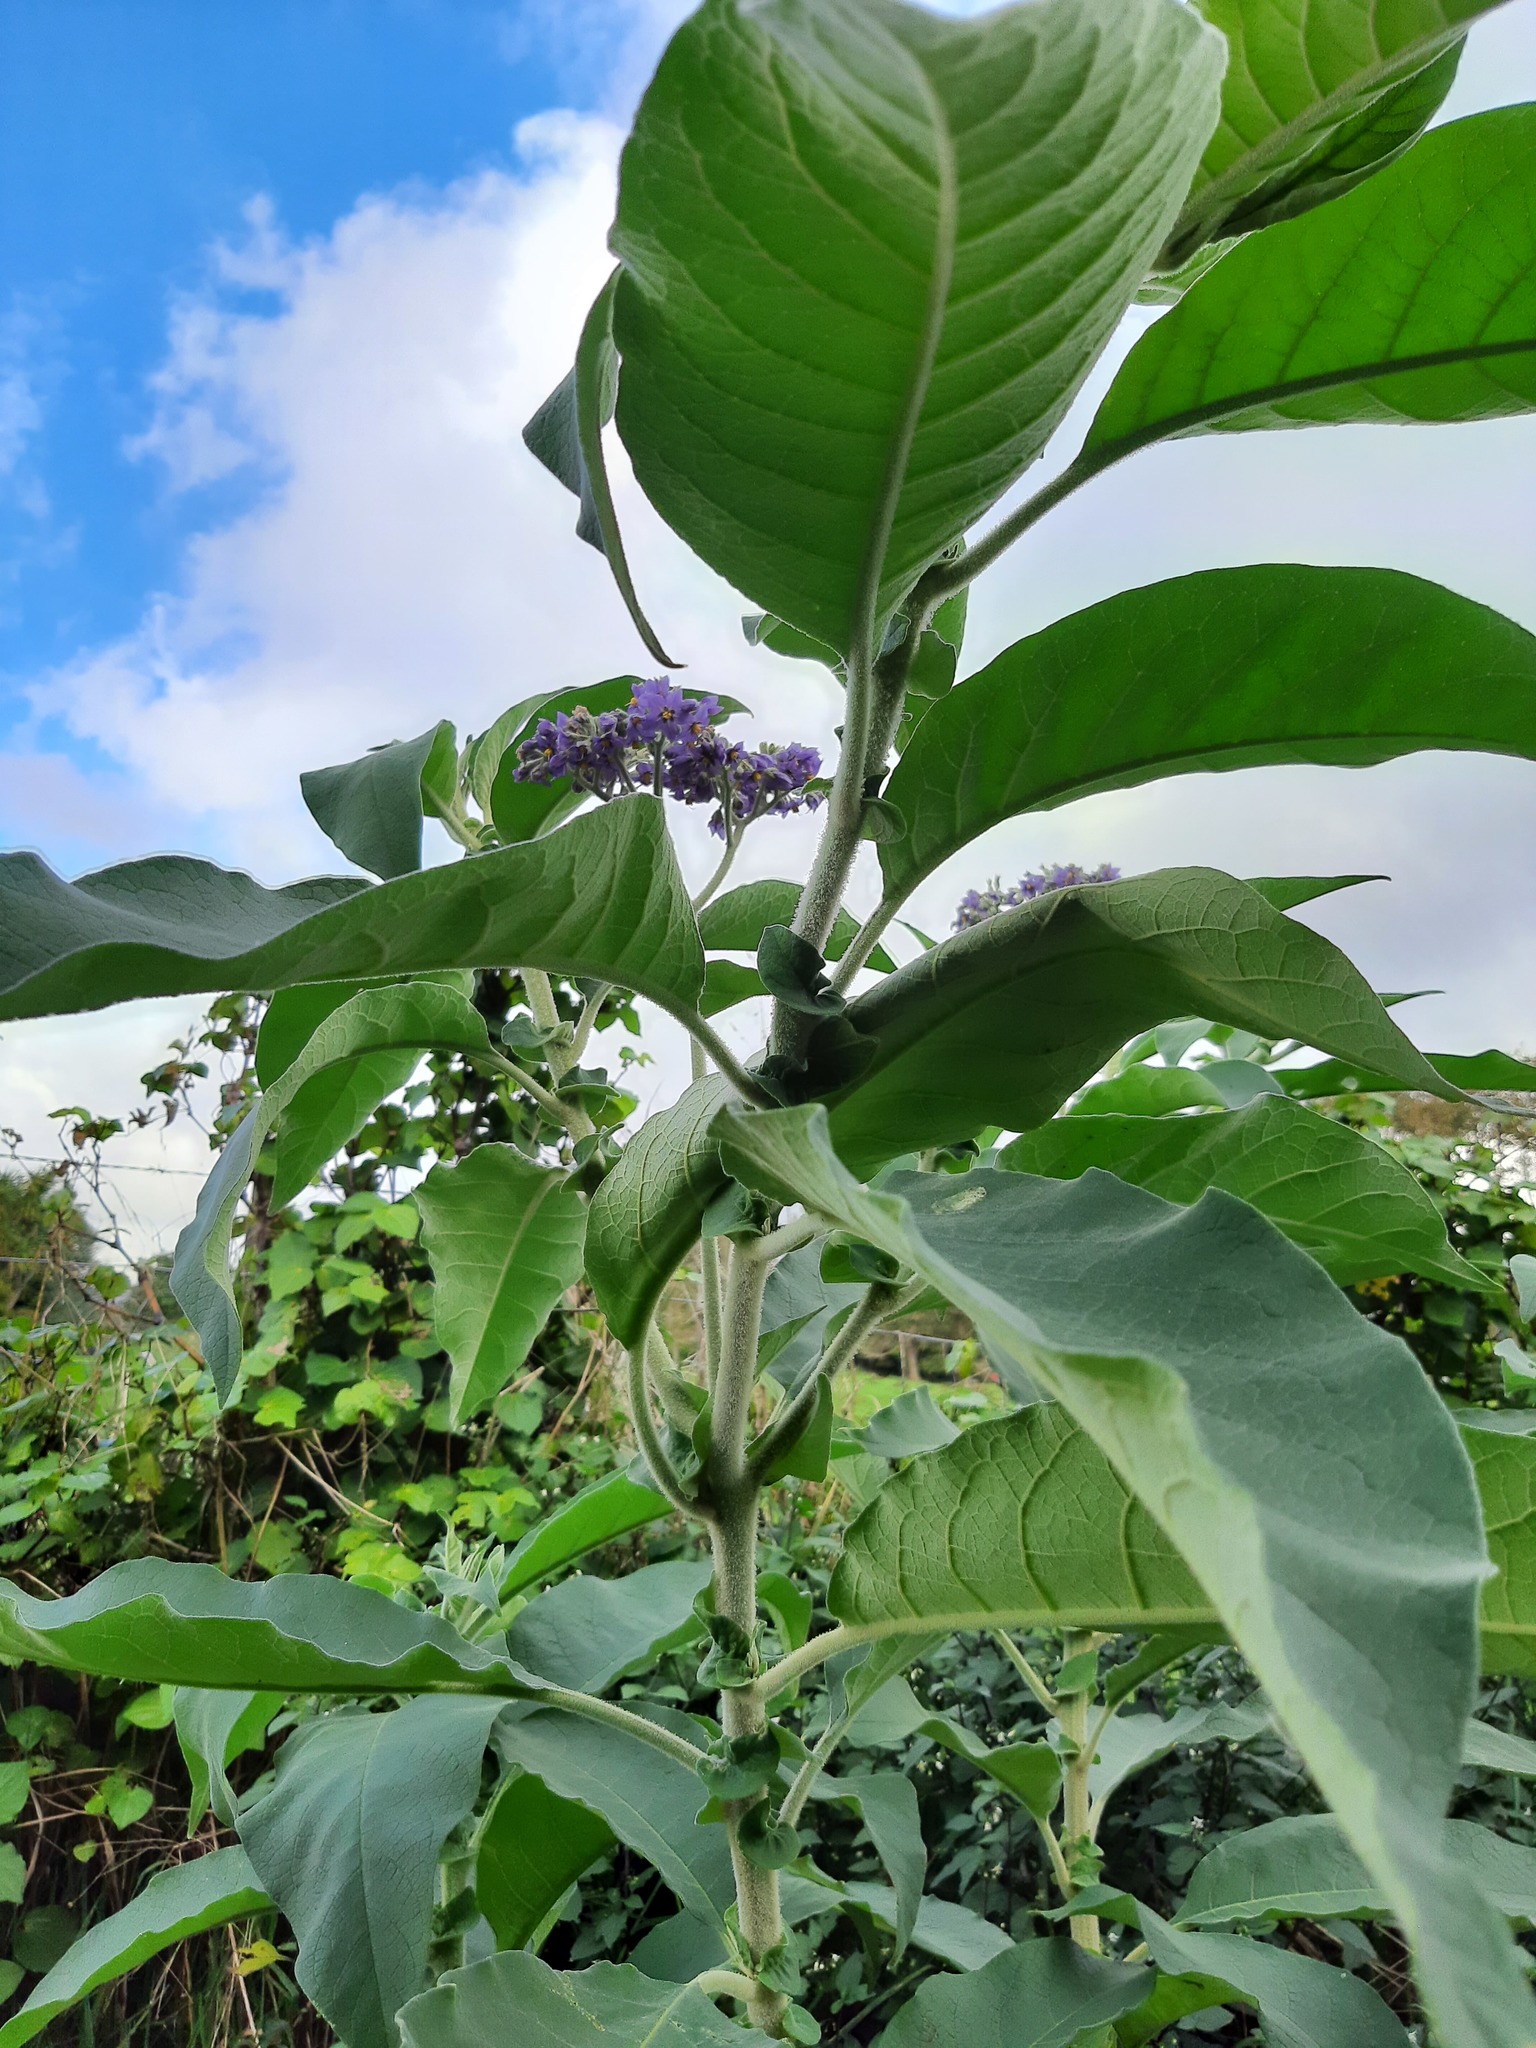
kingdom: Plantae
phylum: Tracheophyta
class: Magnoliopsida
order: Solanales
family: Solanaceae
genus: Solanum
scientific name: Solanum mauritianum
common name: Earleaf nightshade
